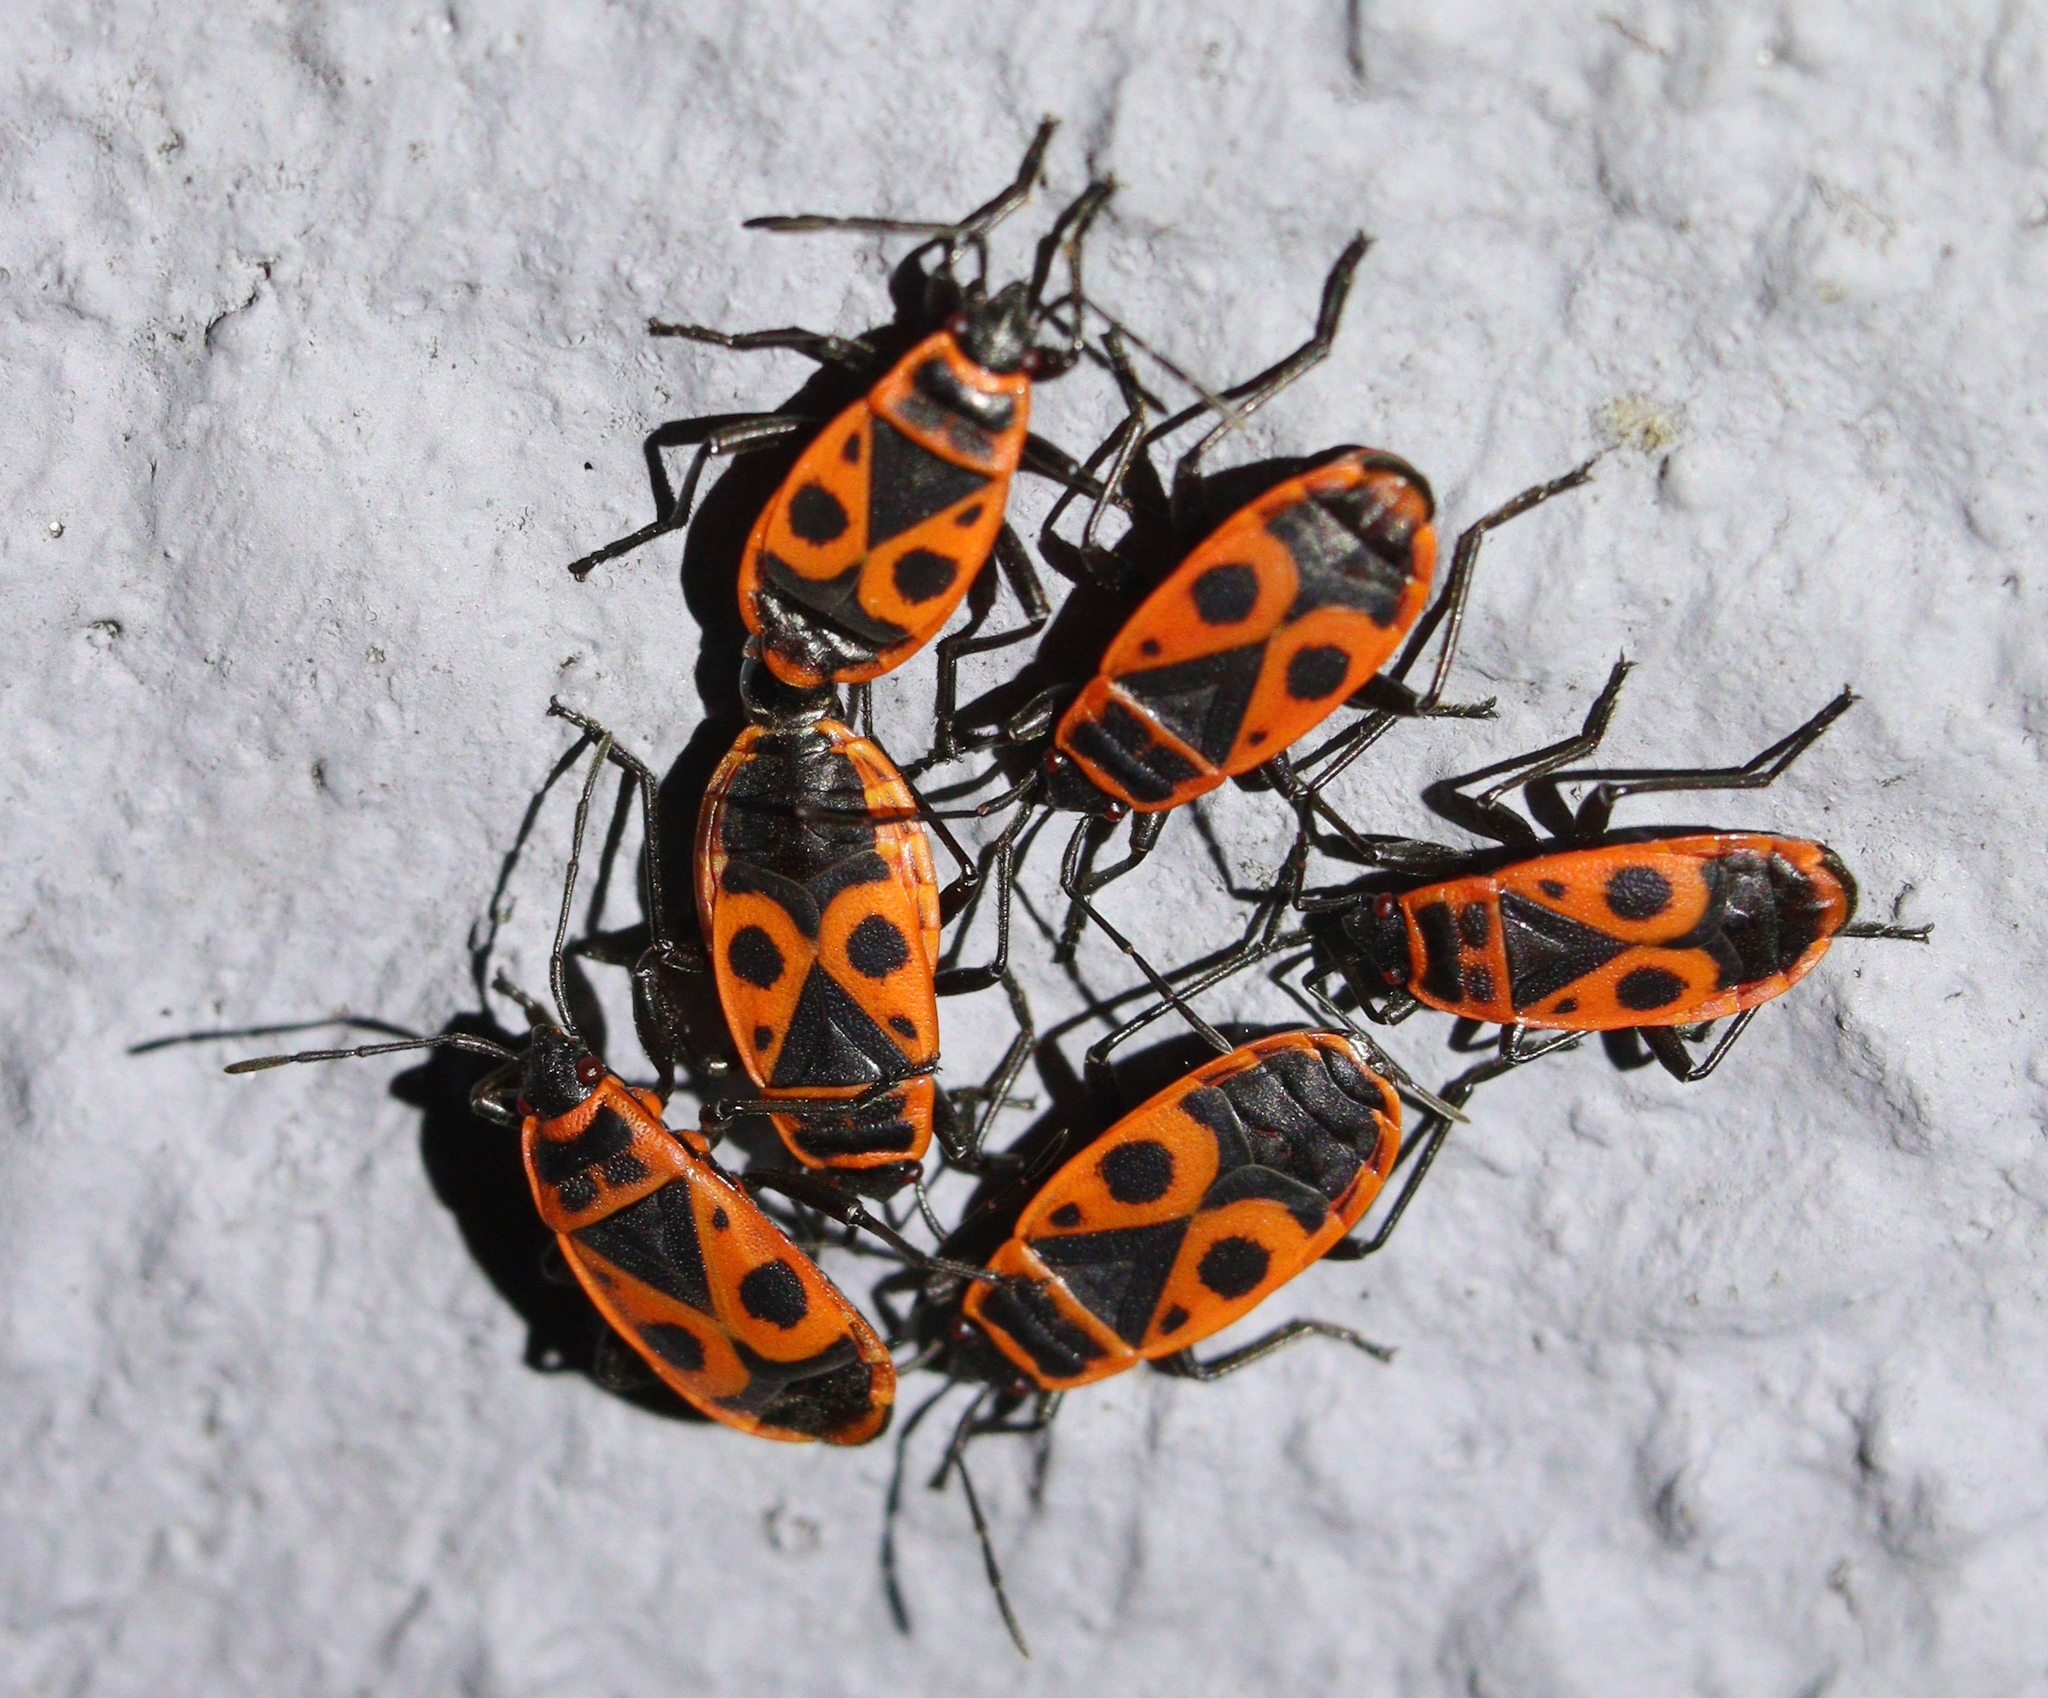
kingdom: Animalia
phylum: Arthropoda
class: Insecta
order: Hemiptera
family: Pyrrhocoridae
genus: Pyrrhocoris
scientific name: Pyrrhocoris apterus
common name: Firebug
